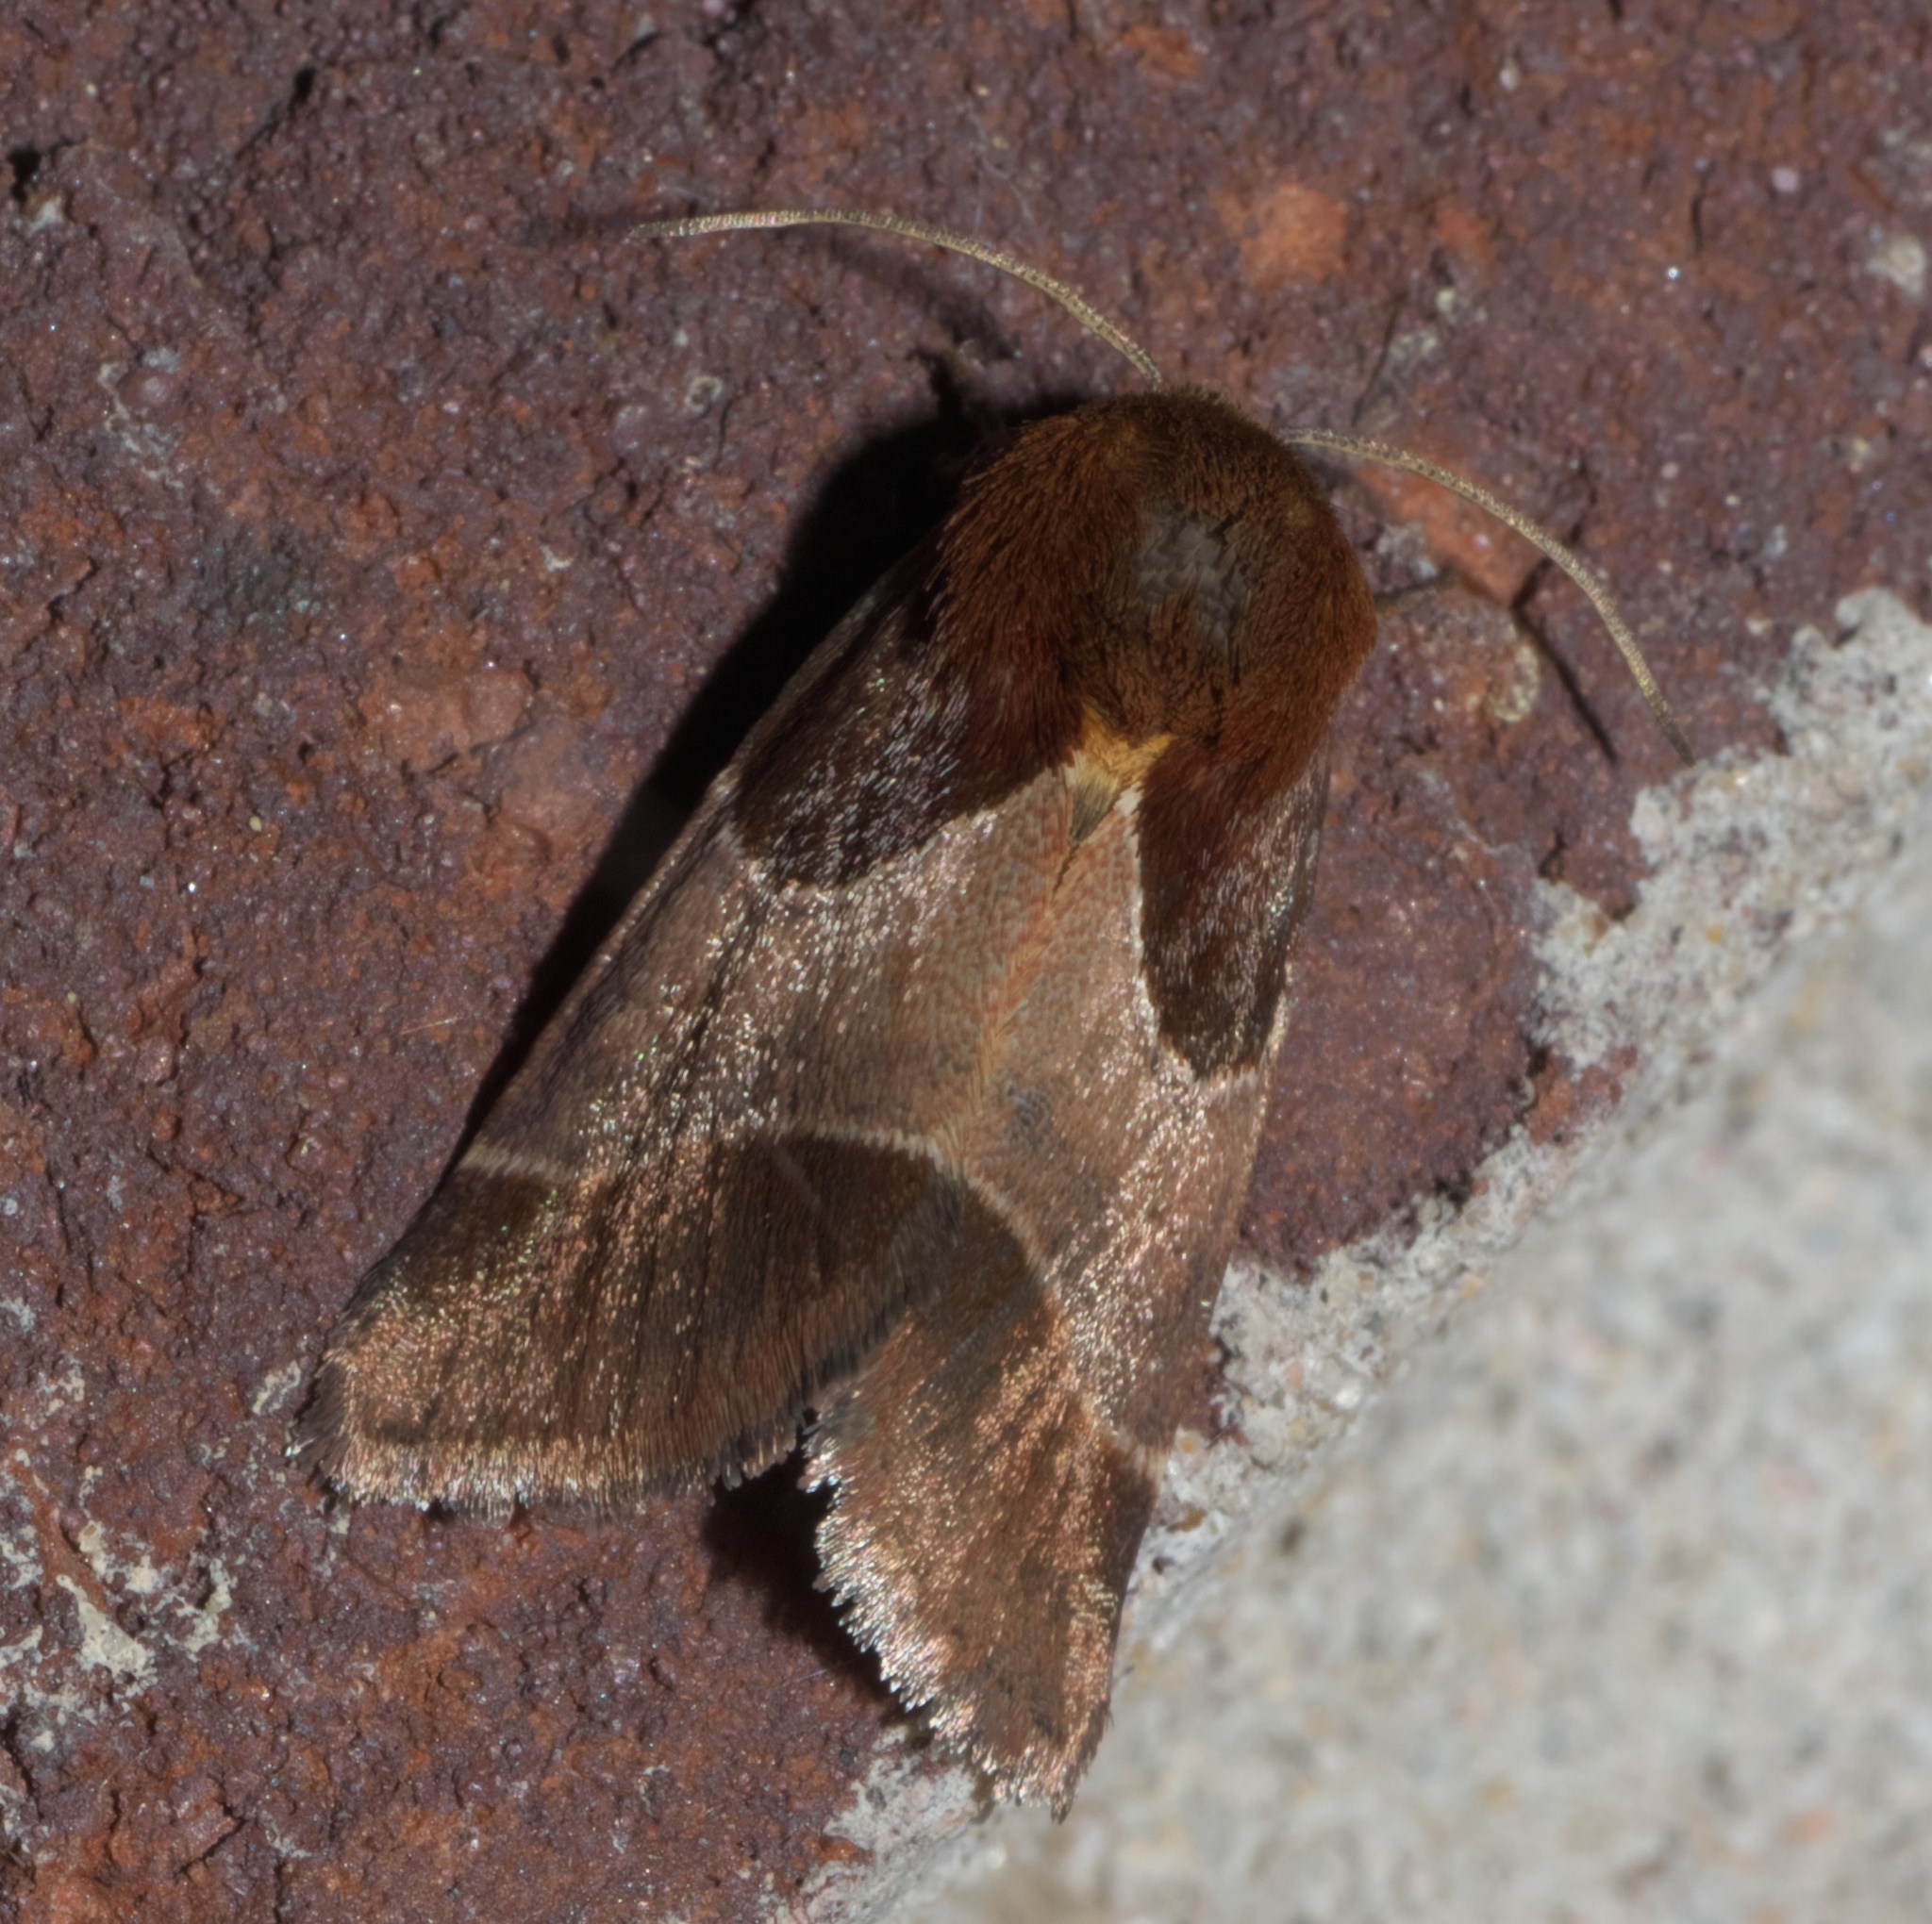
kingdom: Animalia
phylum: Arthropoda
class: Insecta
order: Lepidoptera
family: Noctuidae
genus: Schinia
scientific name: Schinia arcigera
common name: Arcigera flower moth
